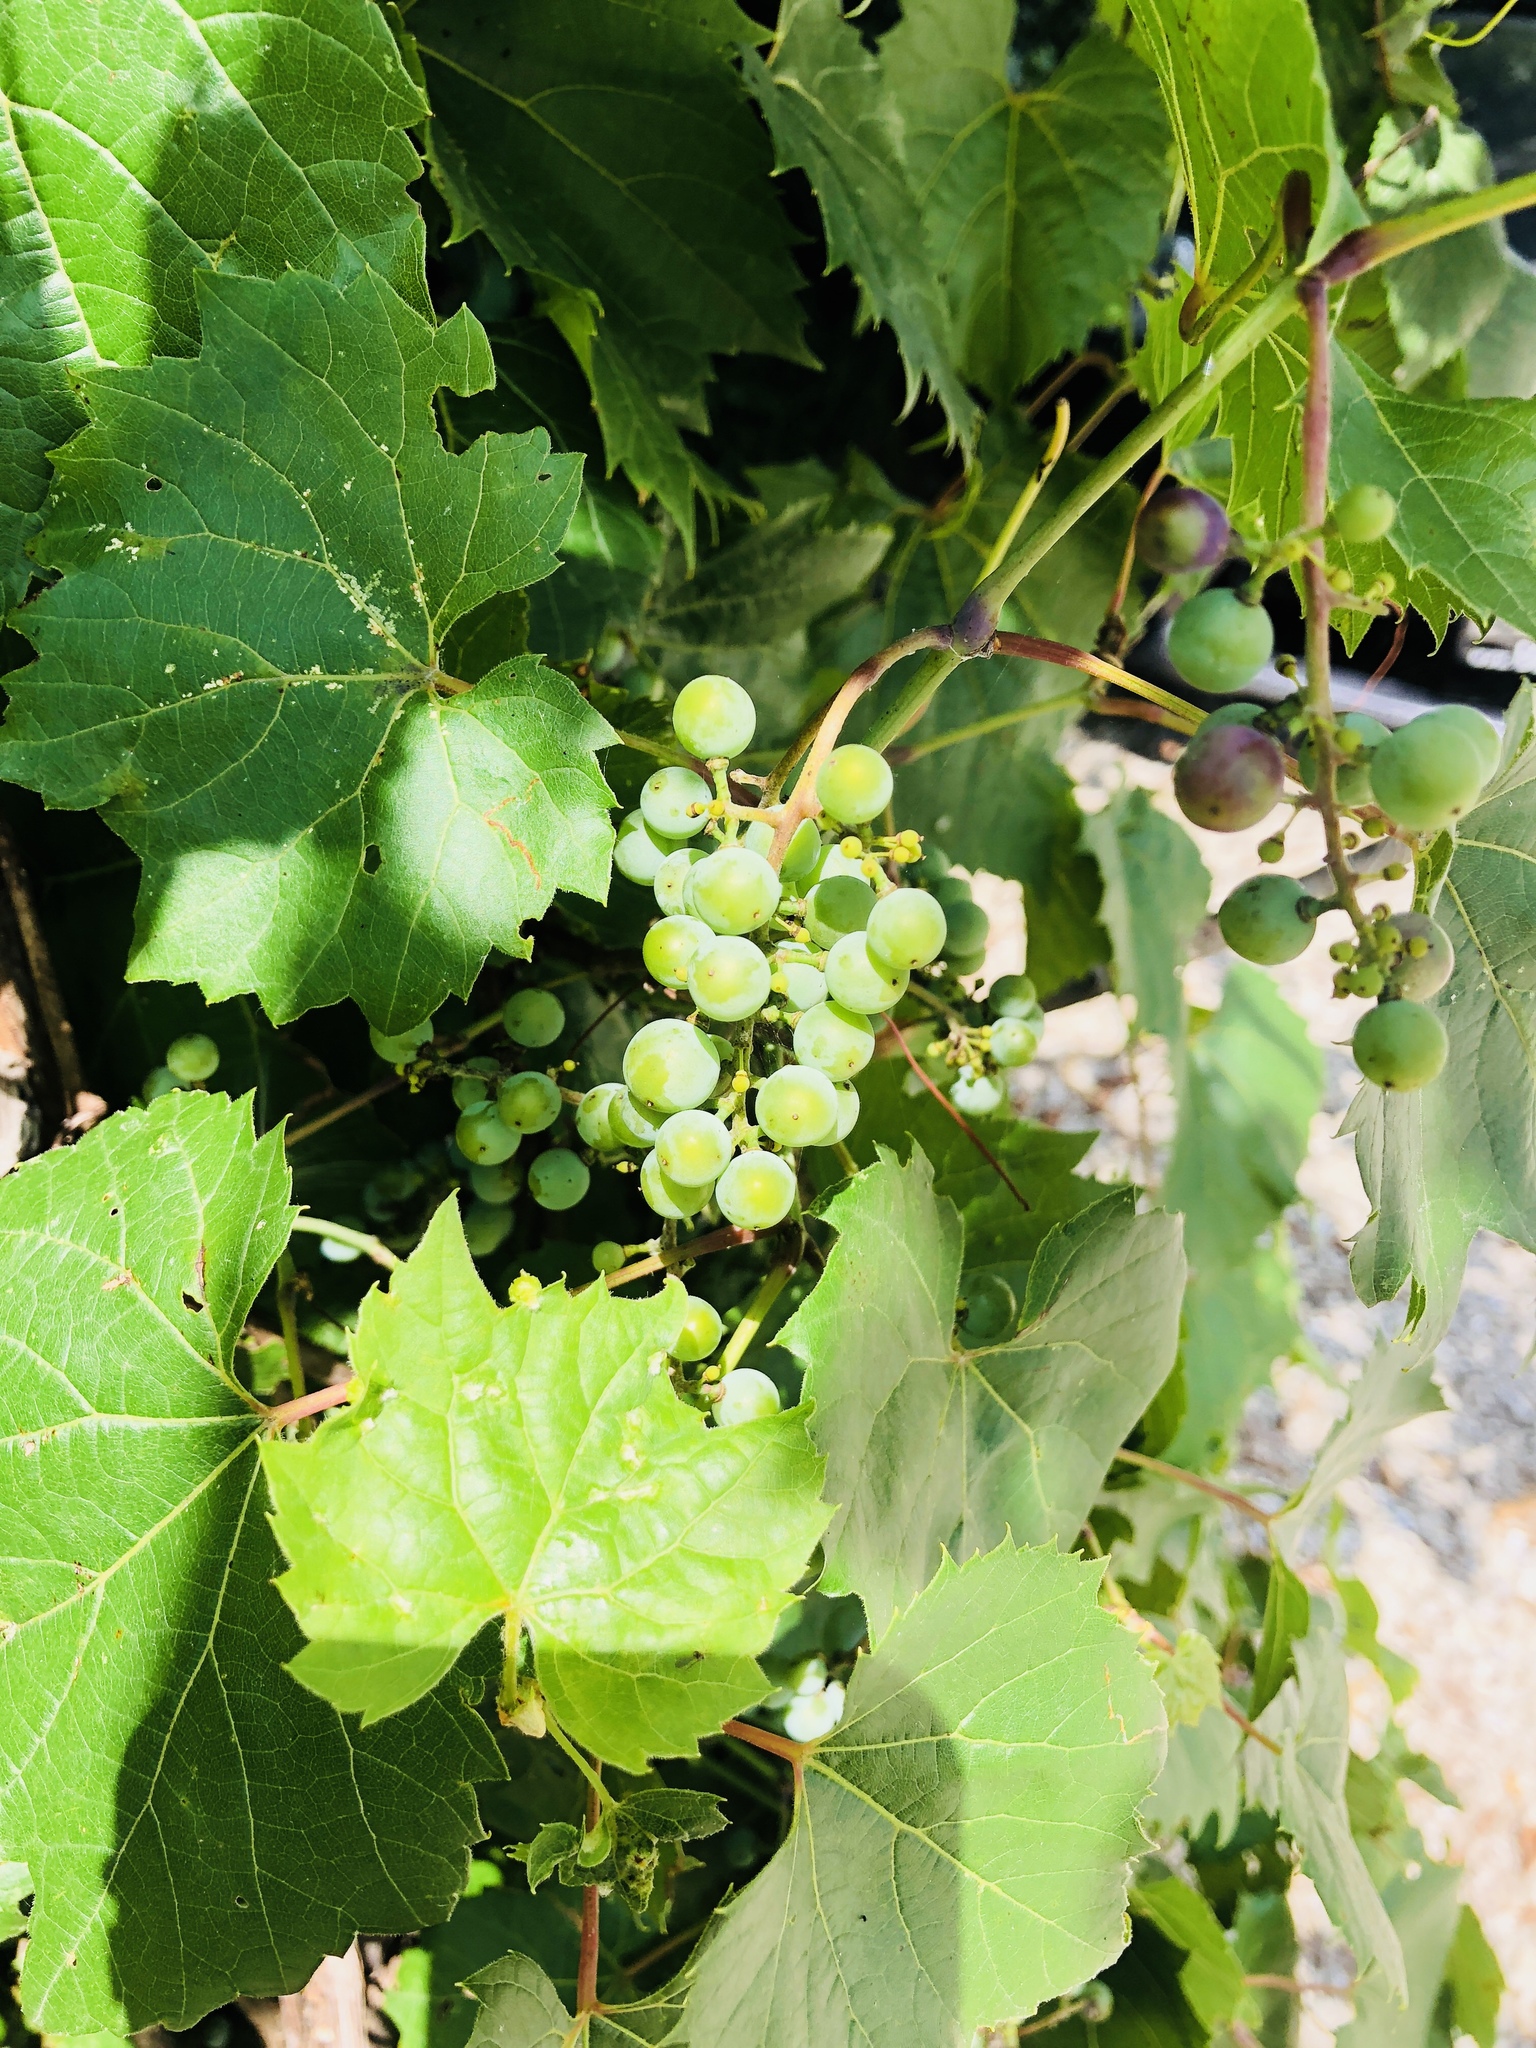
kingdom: Plantae
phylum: Tracheophyta
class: Magnoliopsida
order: Vitales
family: Vitaceae
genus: Vitis
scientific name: Vitis riparia
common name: Frost grape
